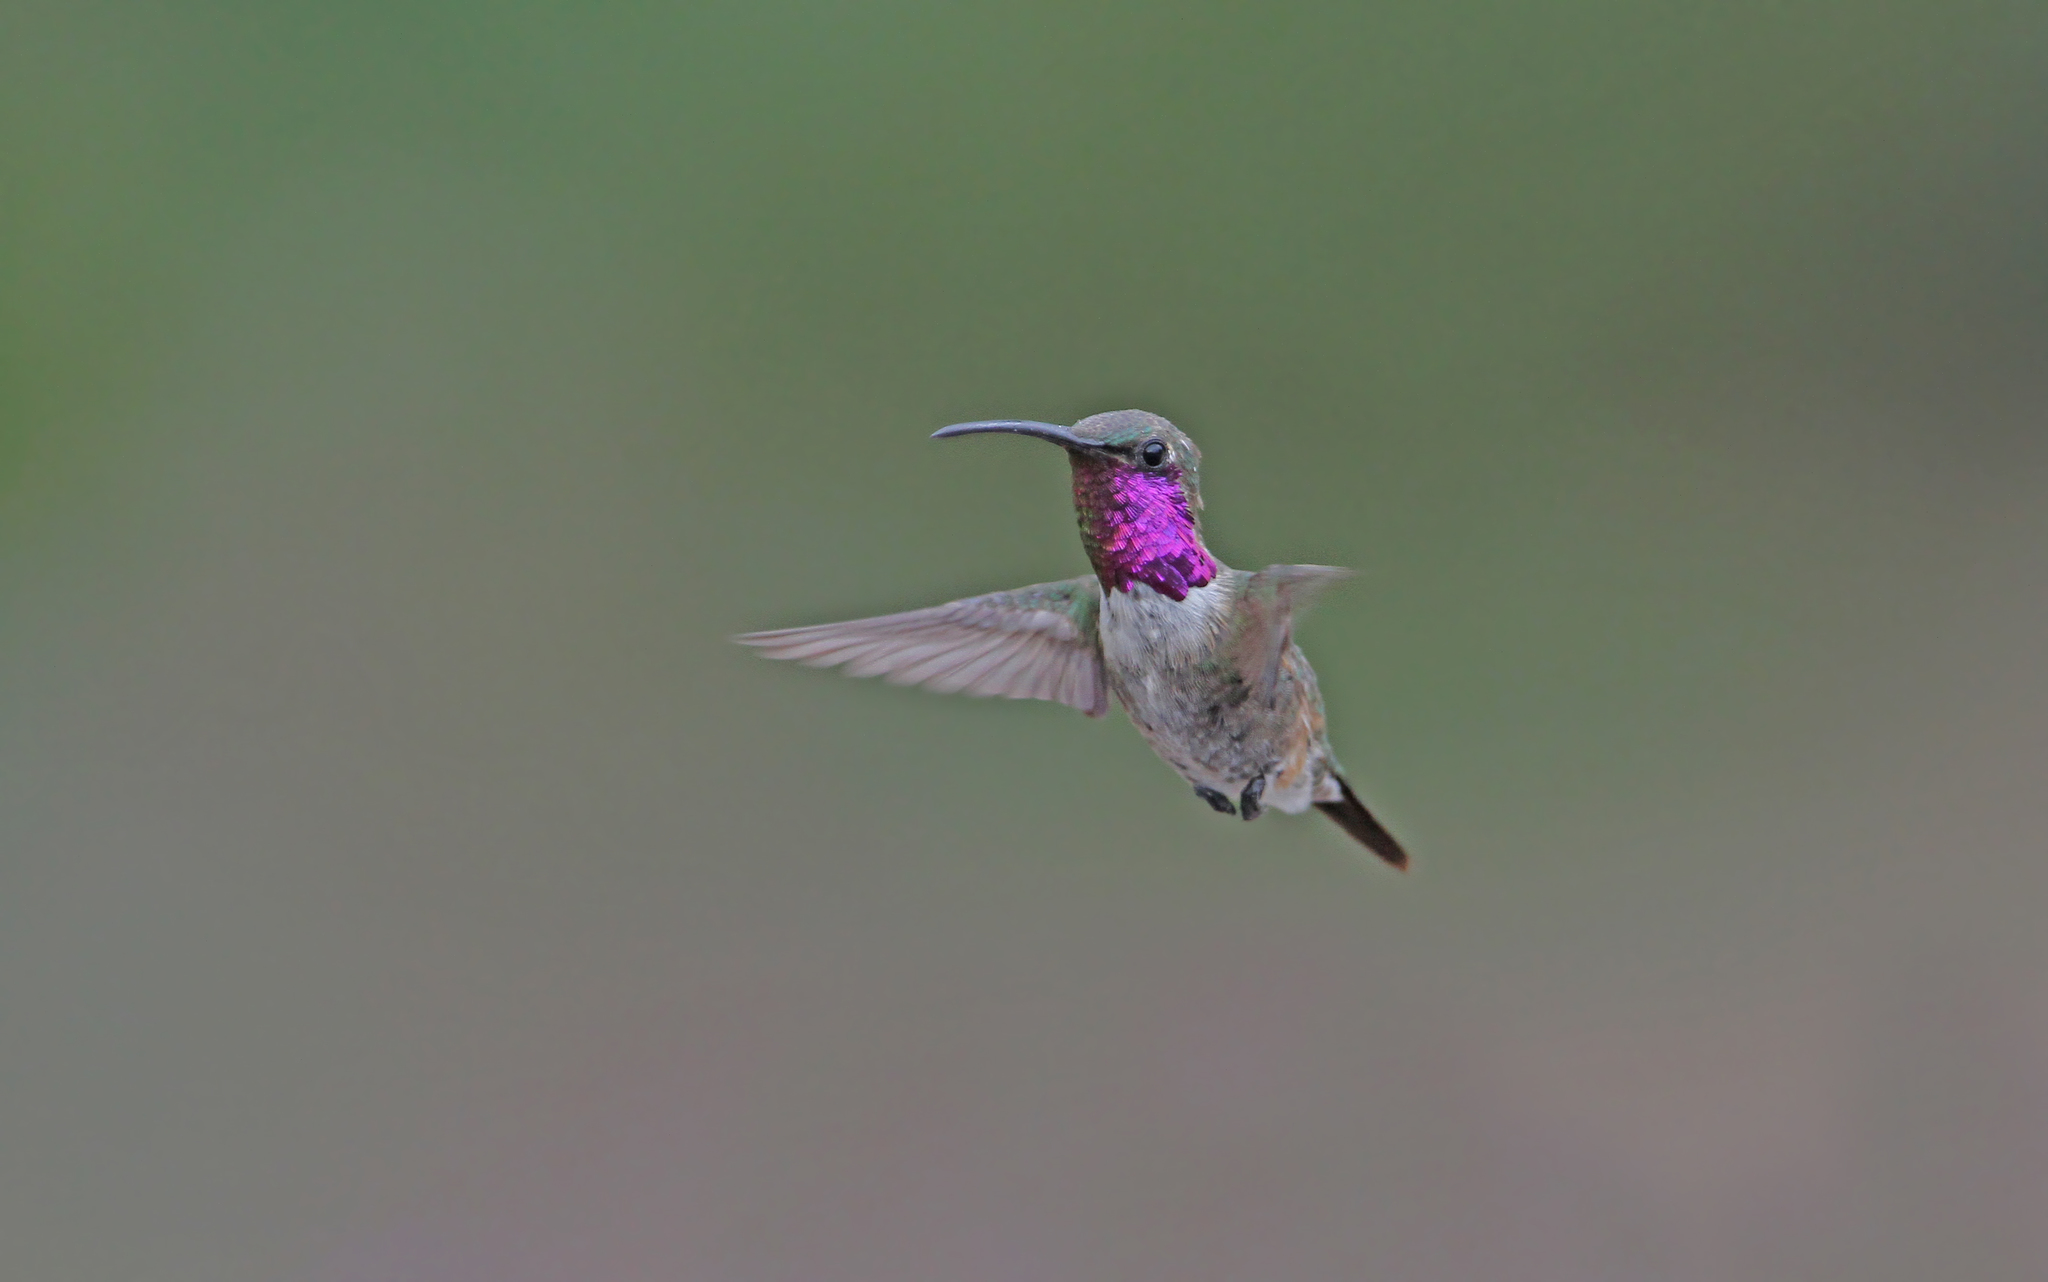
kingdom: Animalia
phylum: Chordata
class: Aves
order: Apodiformes
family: Trochilidae
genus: Calothorax
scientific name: Calothorax lucifer
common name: Lucifer sheartail
